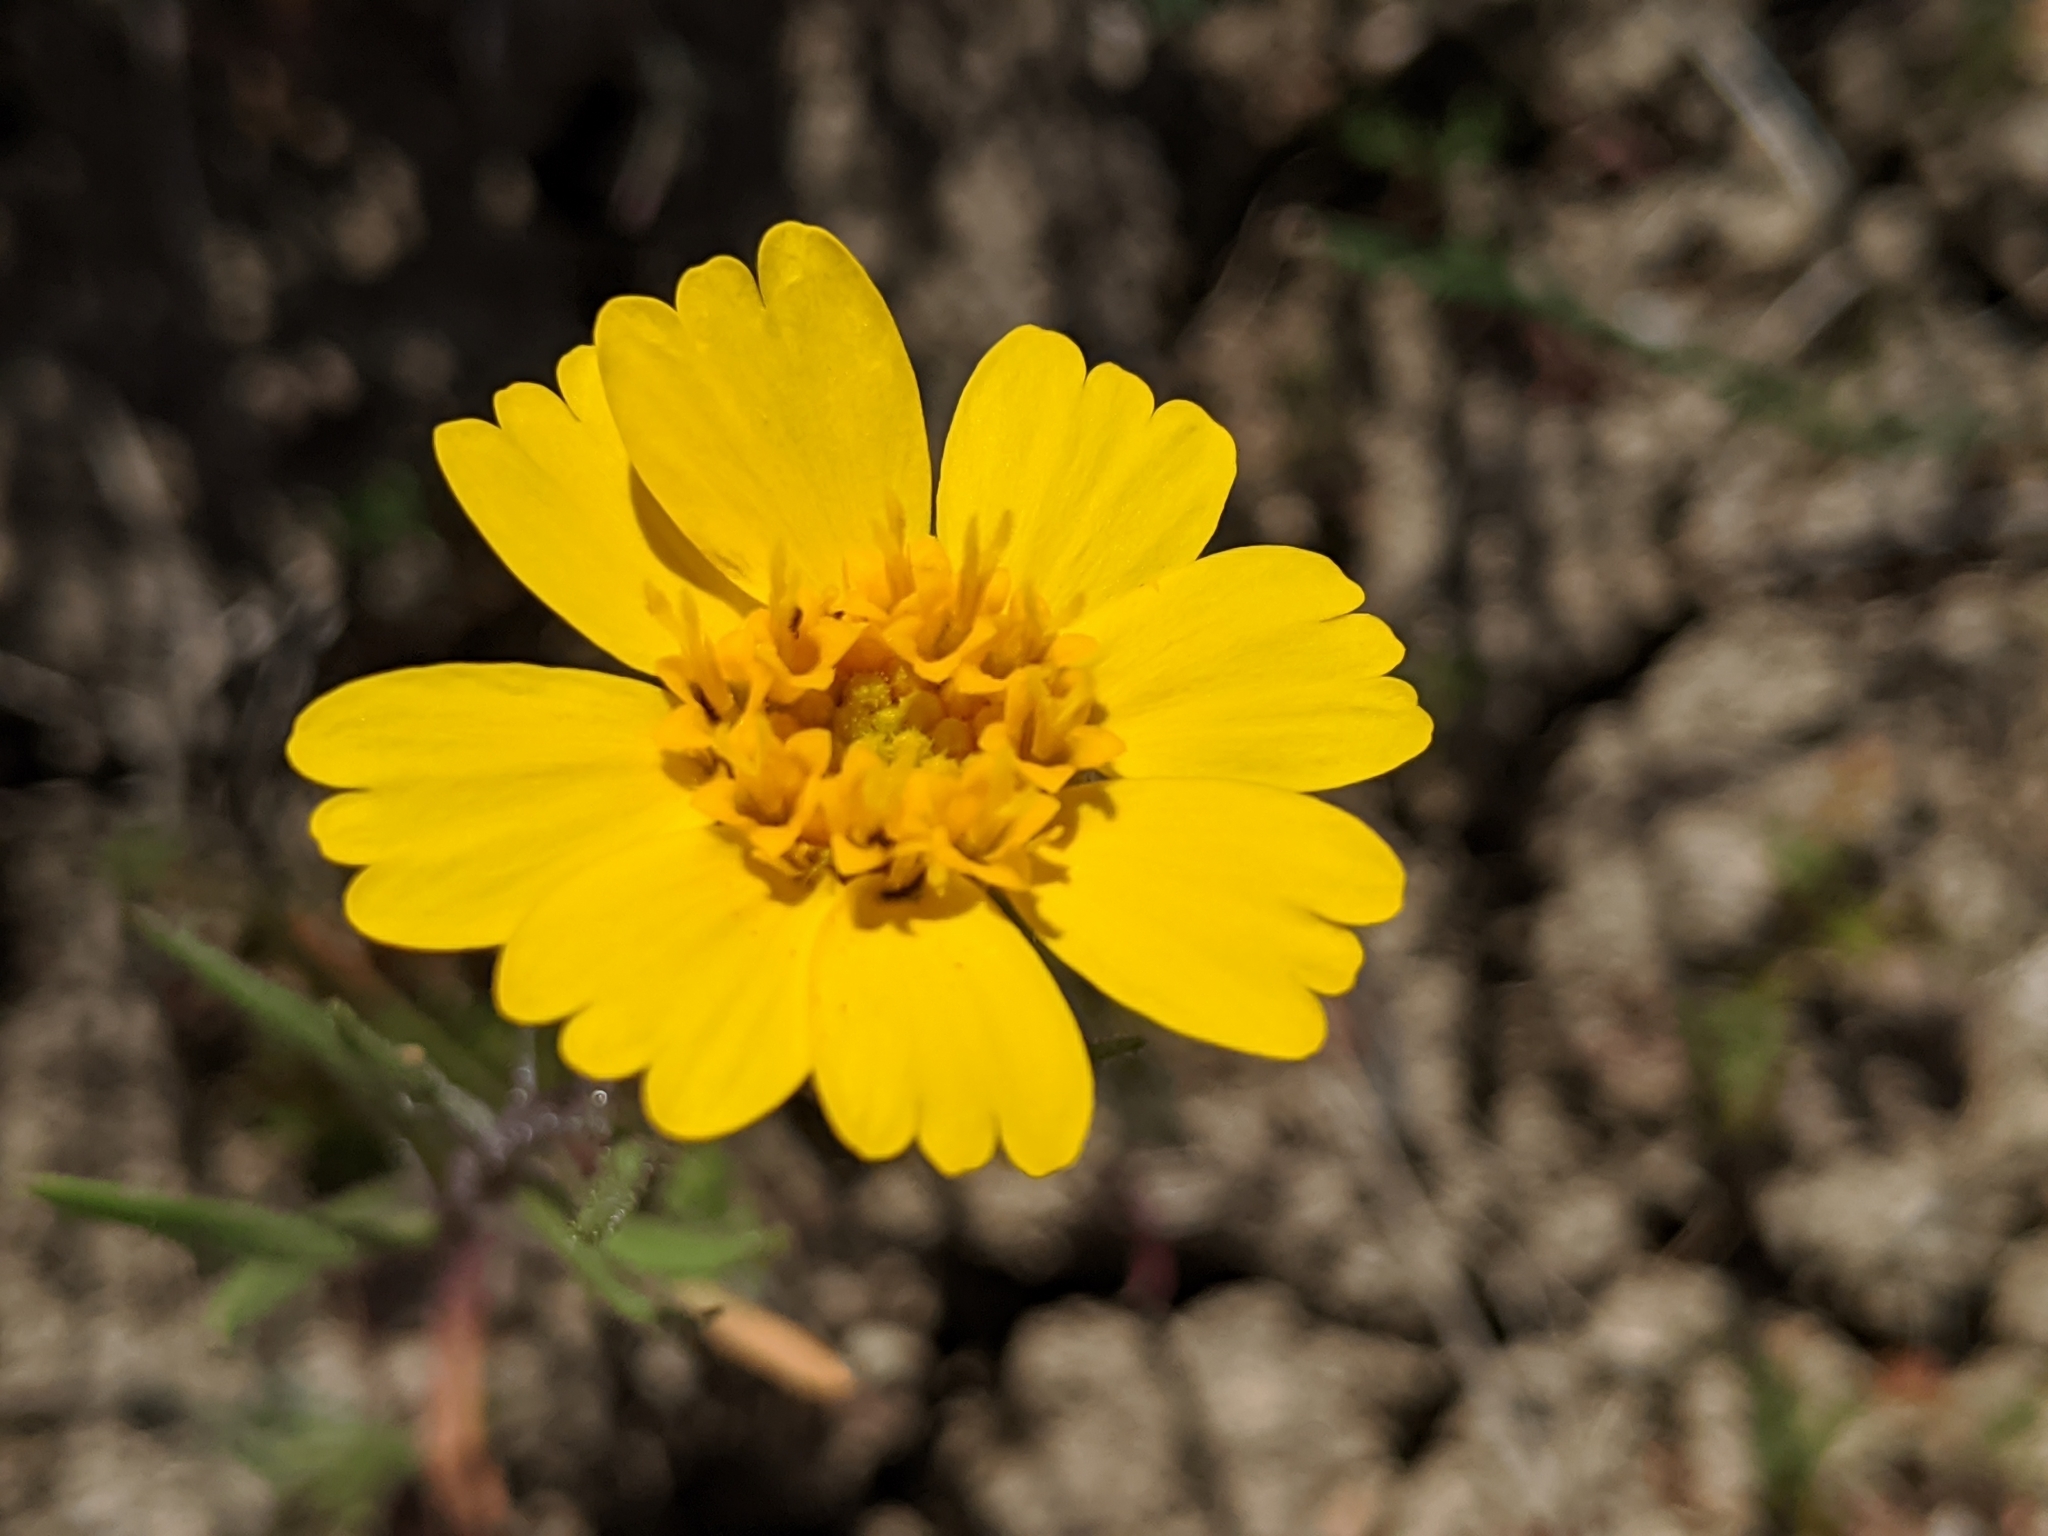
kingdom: Plantae
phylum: Tracheophyta
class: Magnoliopsida
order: Asterales
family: Asteraceae
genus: Madia
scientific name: Madia radiata
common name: Showy madia
